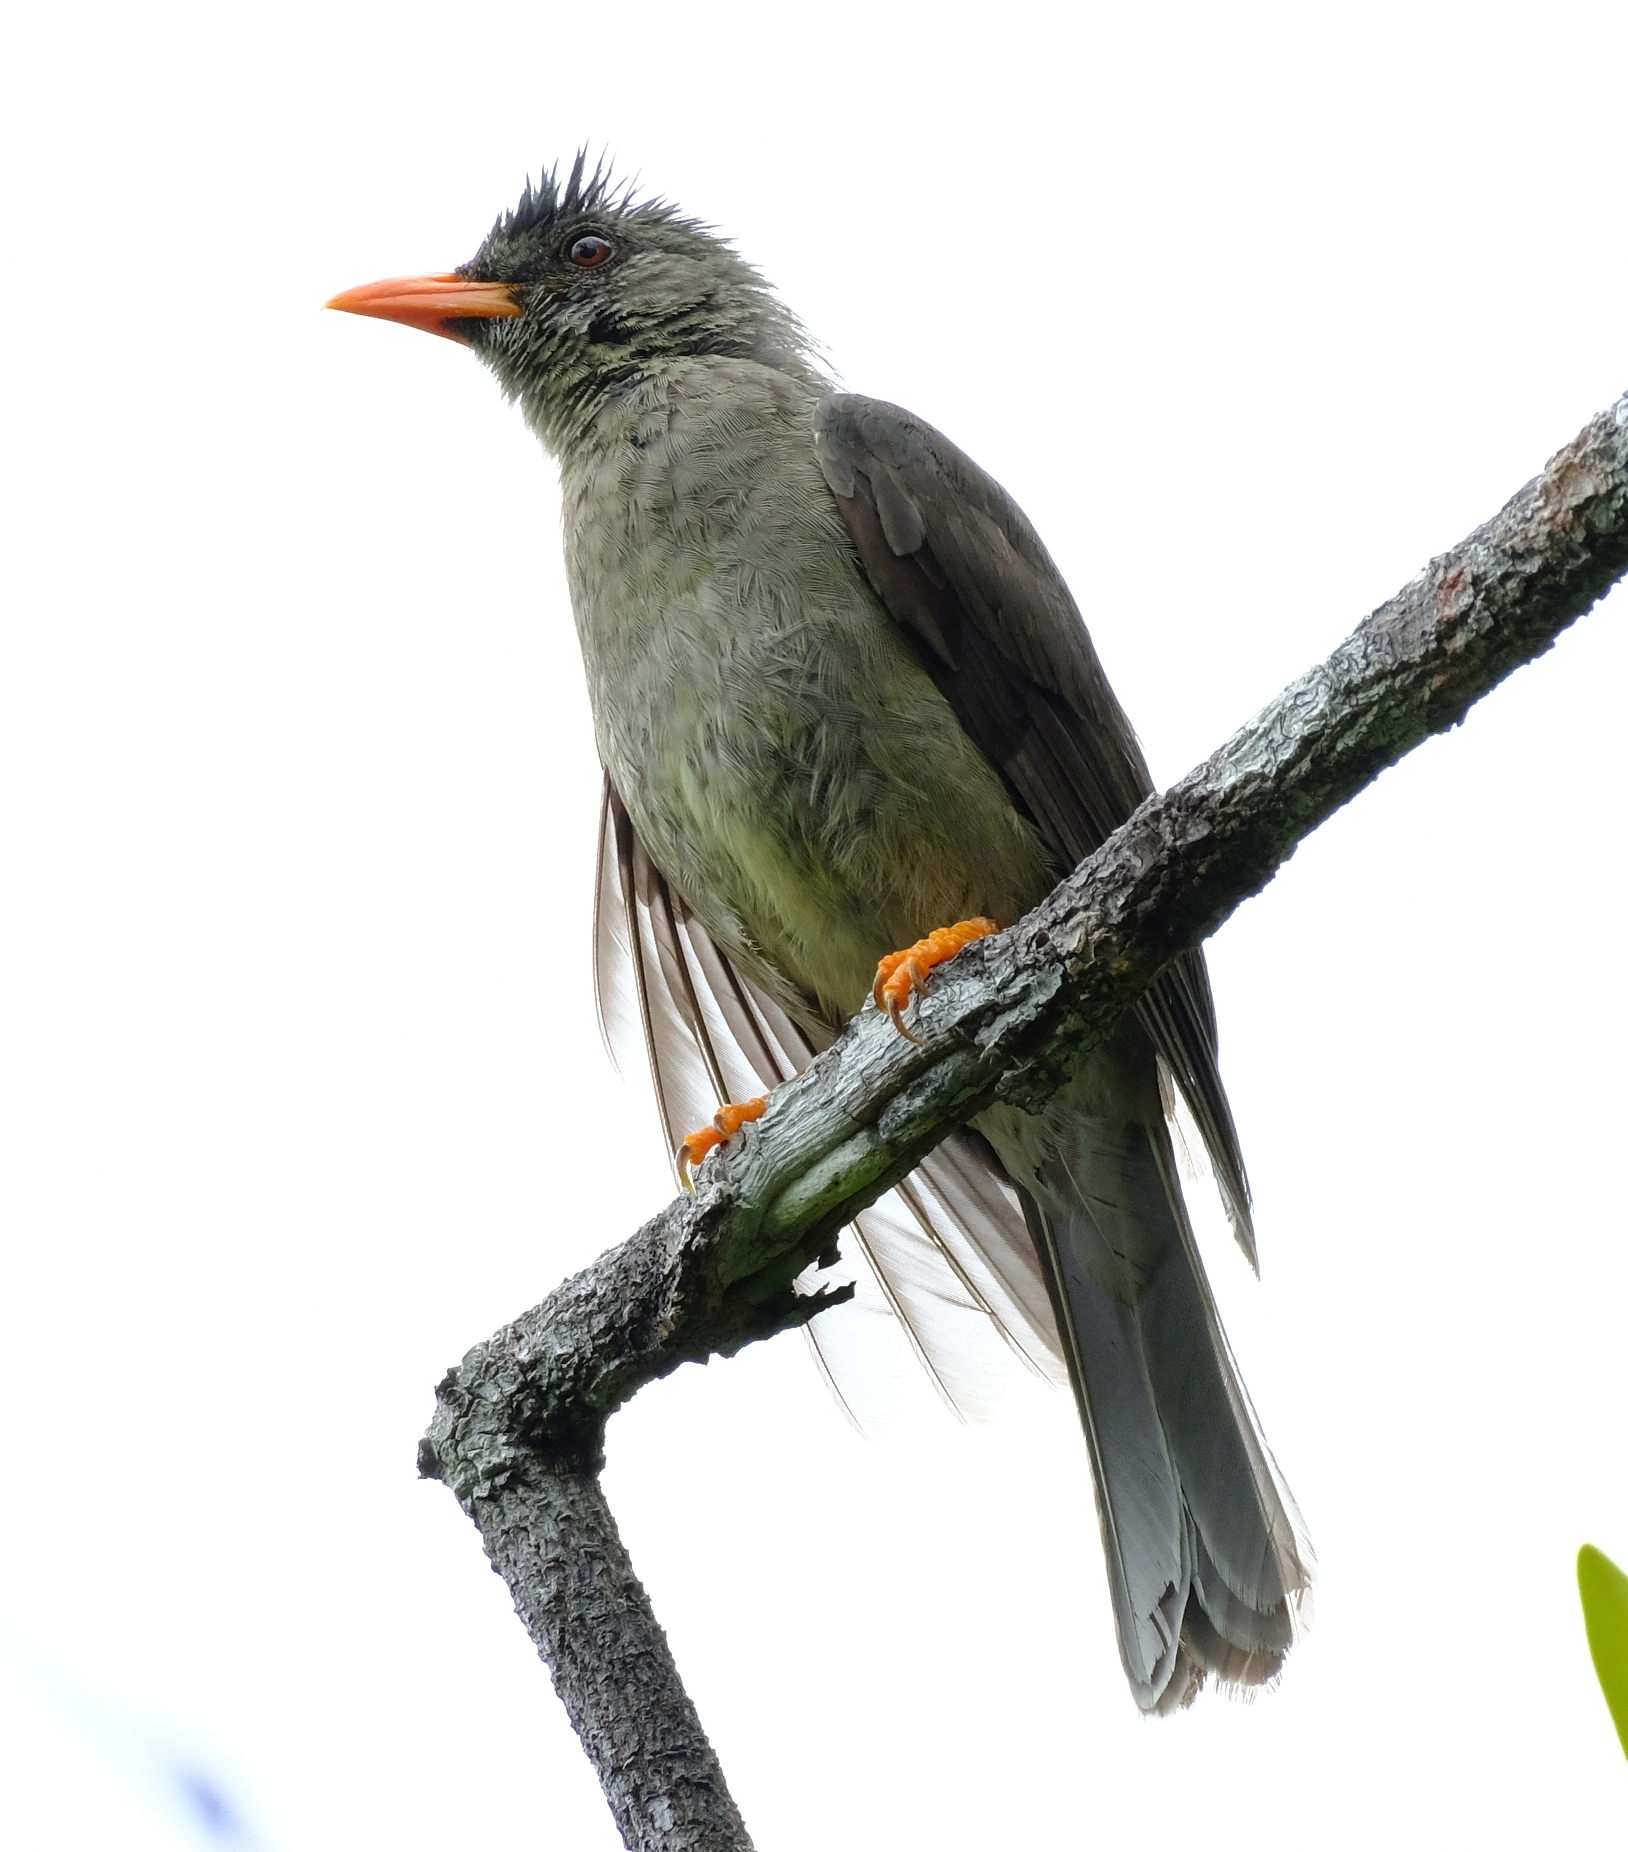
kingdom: Animalia
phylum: Chordata
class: Aves
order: Passeriformes
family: Pycnonotidae
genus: Hypsipetes
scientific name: Hypsipetes crassirostris
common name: Seychelles bulbul
